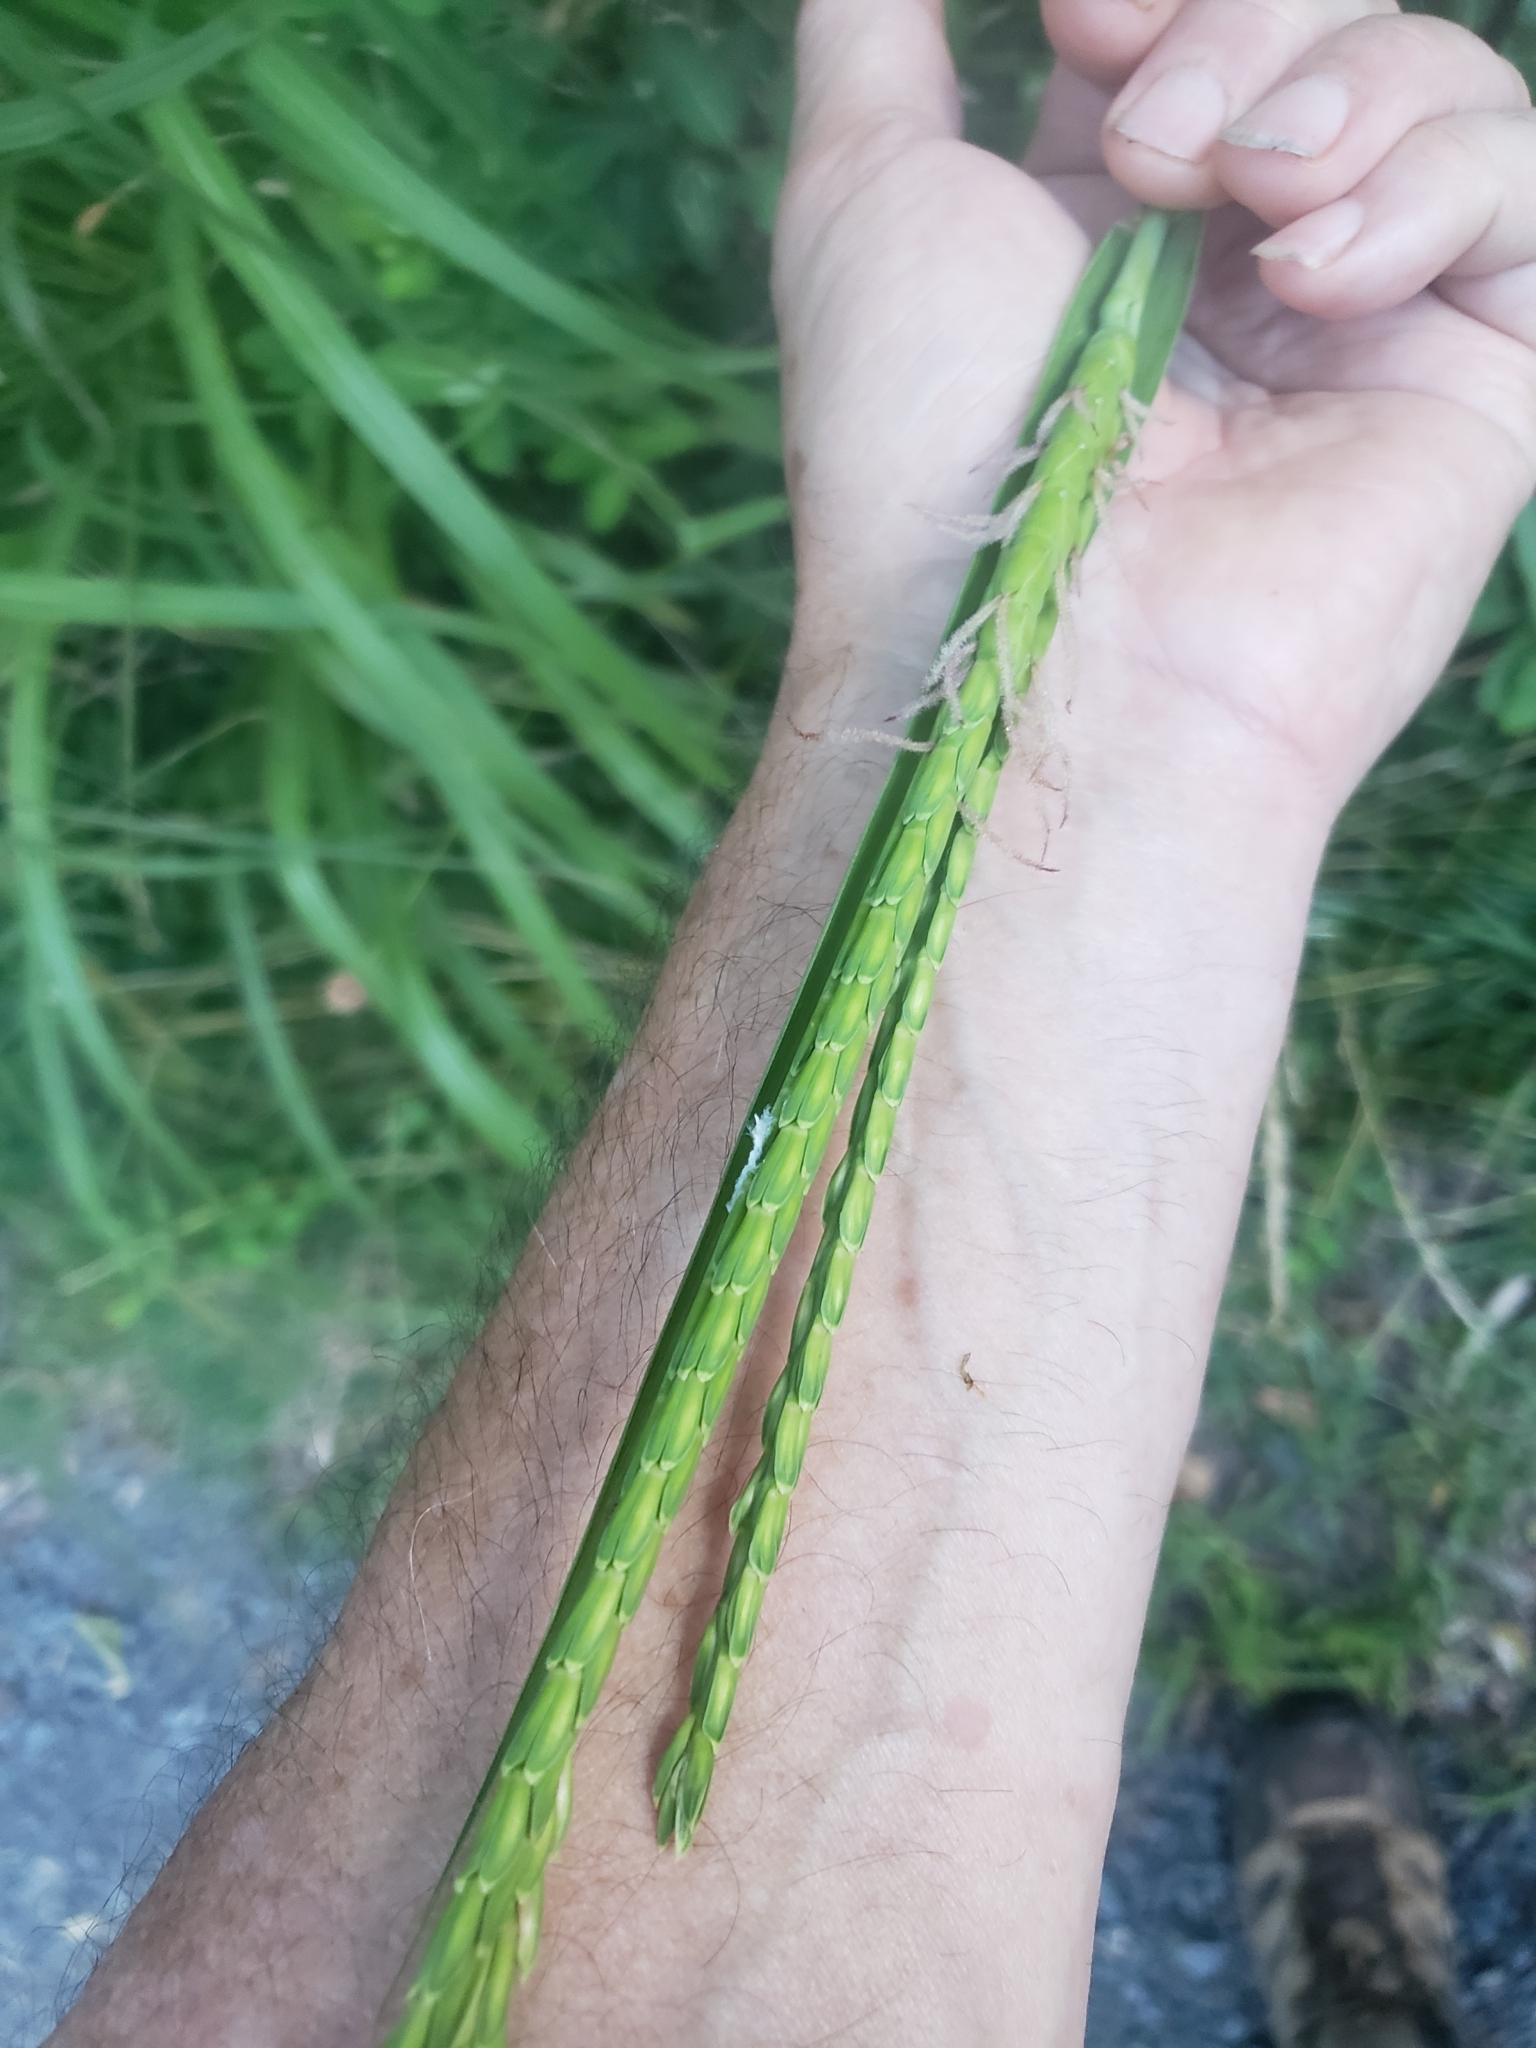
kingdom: Plantae
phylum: Tracheophyta
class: Liliopsida
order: Poales
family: Poaceae
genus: Tripsacum
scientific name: Tripsacum dactyloides
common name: Buffalo-grass
